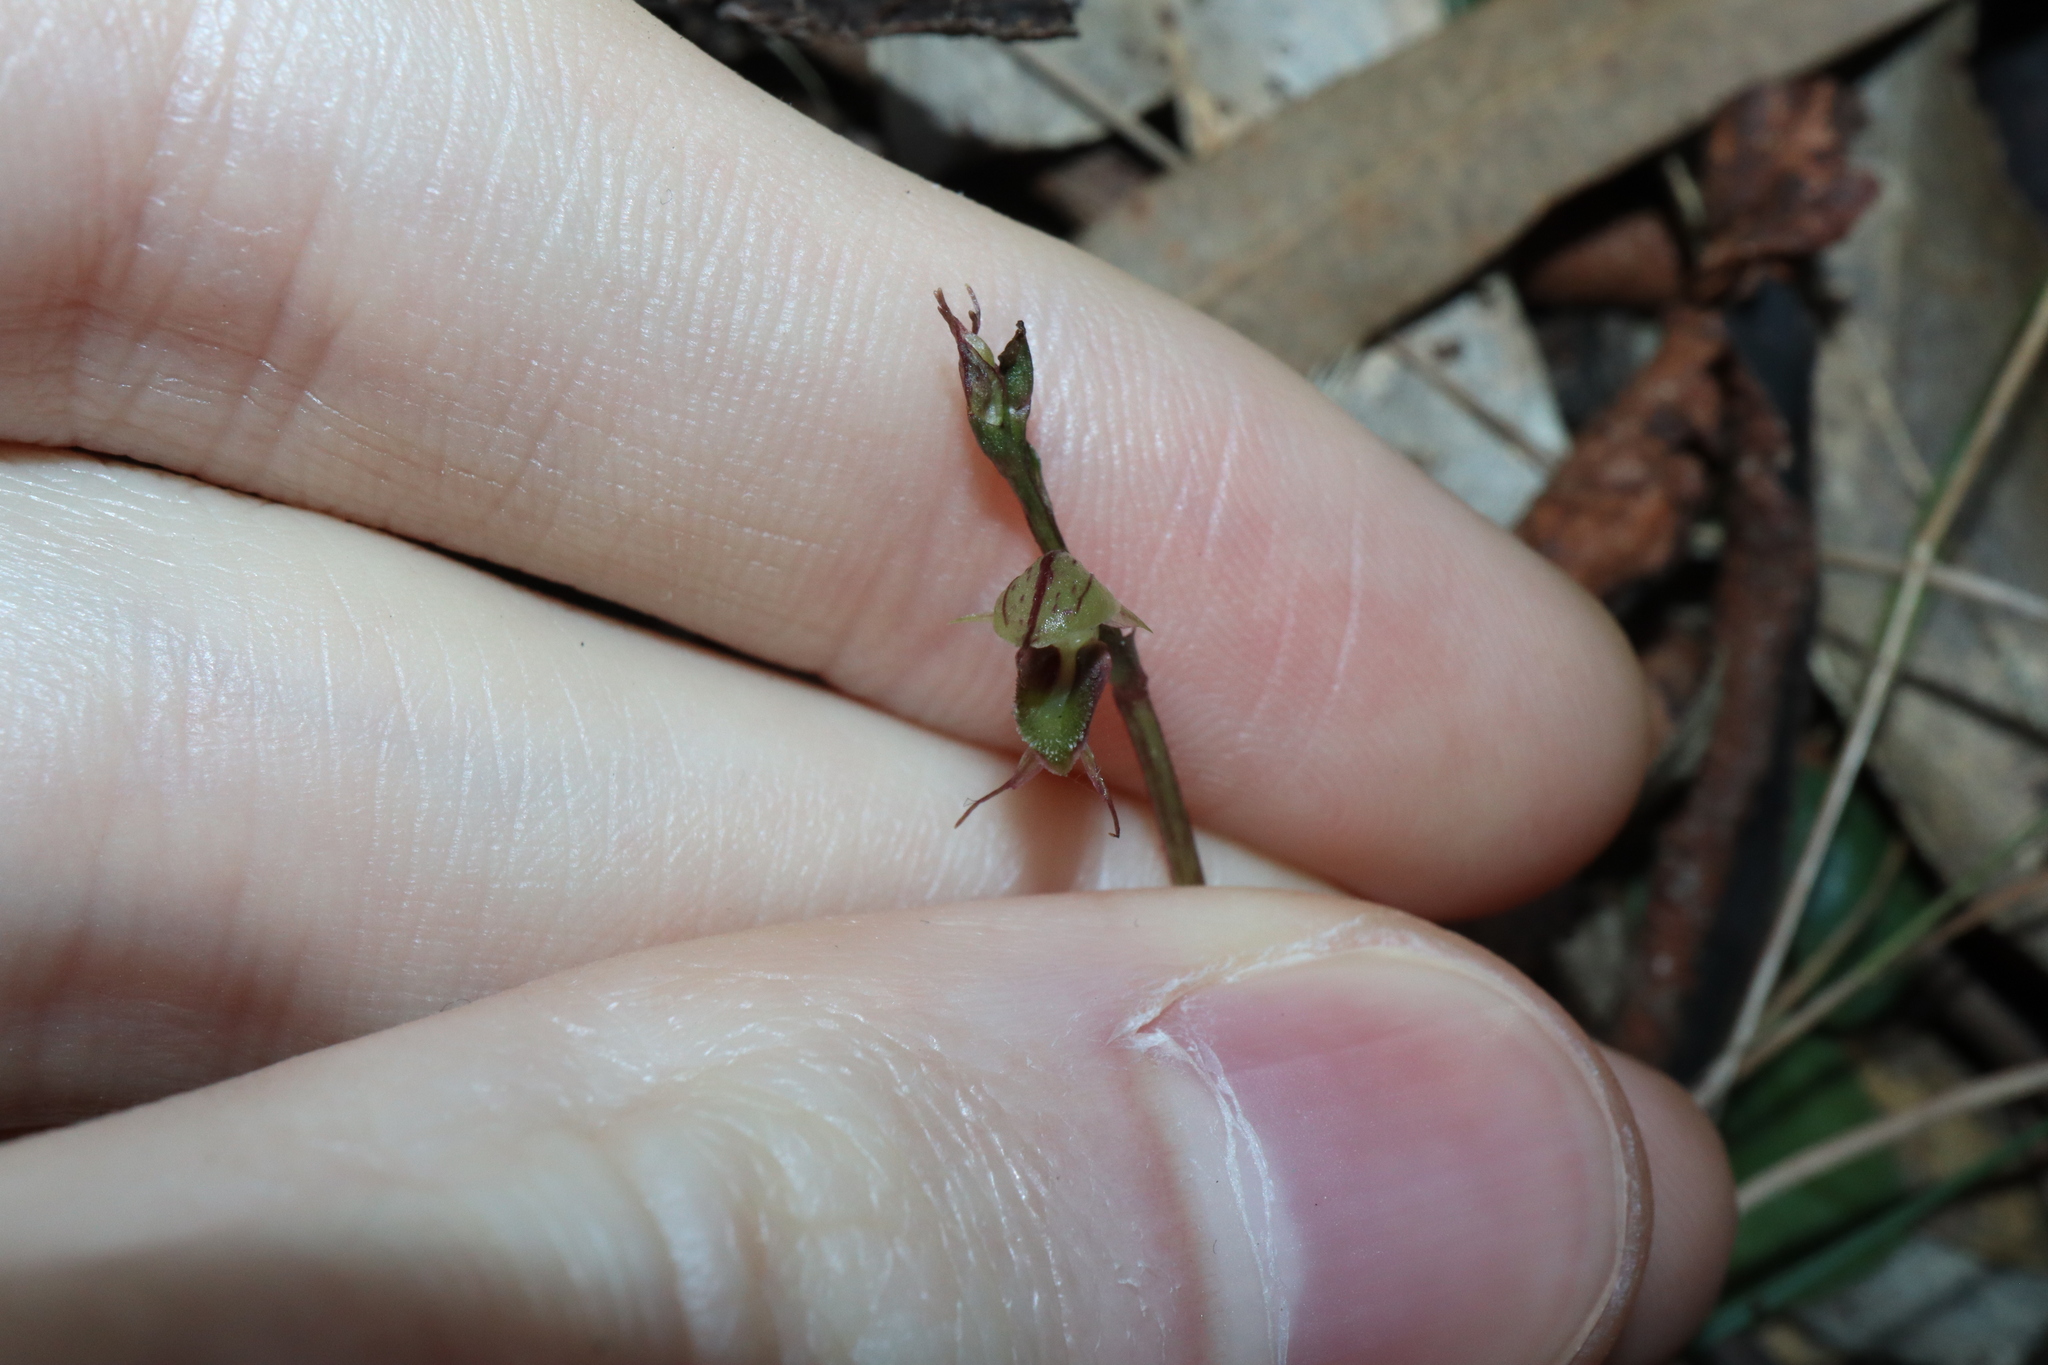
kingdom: Plantae
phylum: Tracheophyta
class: Liliopsida
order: Asparagales
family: Orchidaceae
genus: Acianthus
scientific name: Acianthus fornicatus
